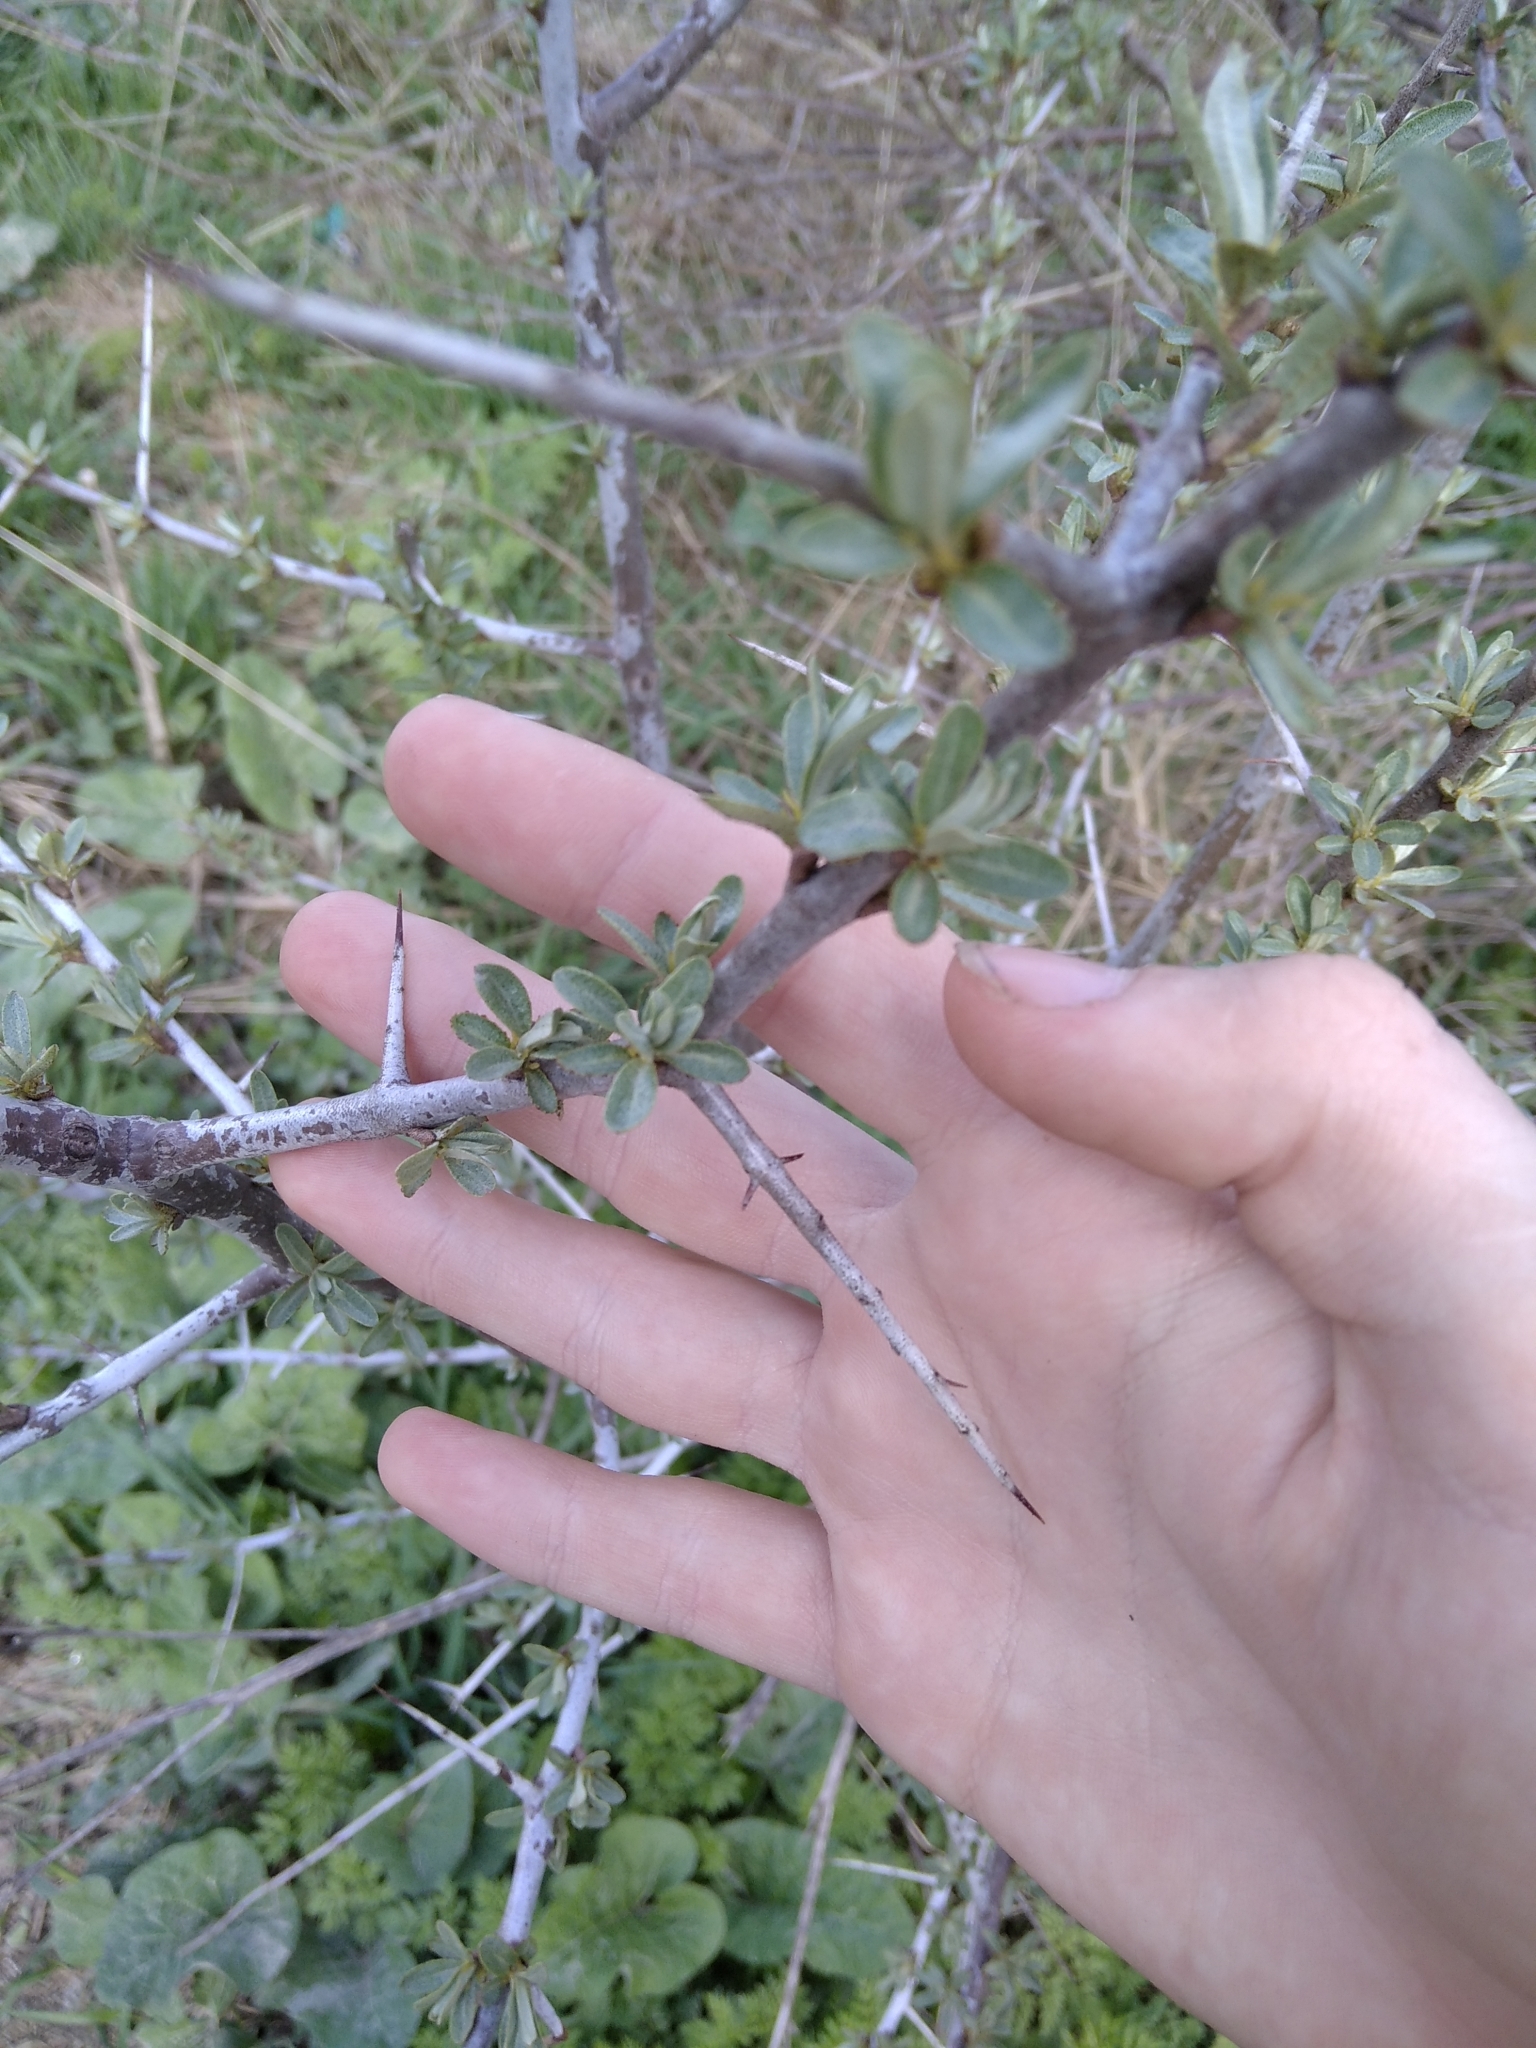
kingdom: Plantae
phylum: Tracheophyta
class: Magnoliopsida
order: Rosales
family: Elaeagnaceae
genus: Hippophae
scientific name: Hippophae rhamnoides
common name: Sea-buckthorn
